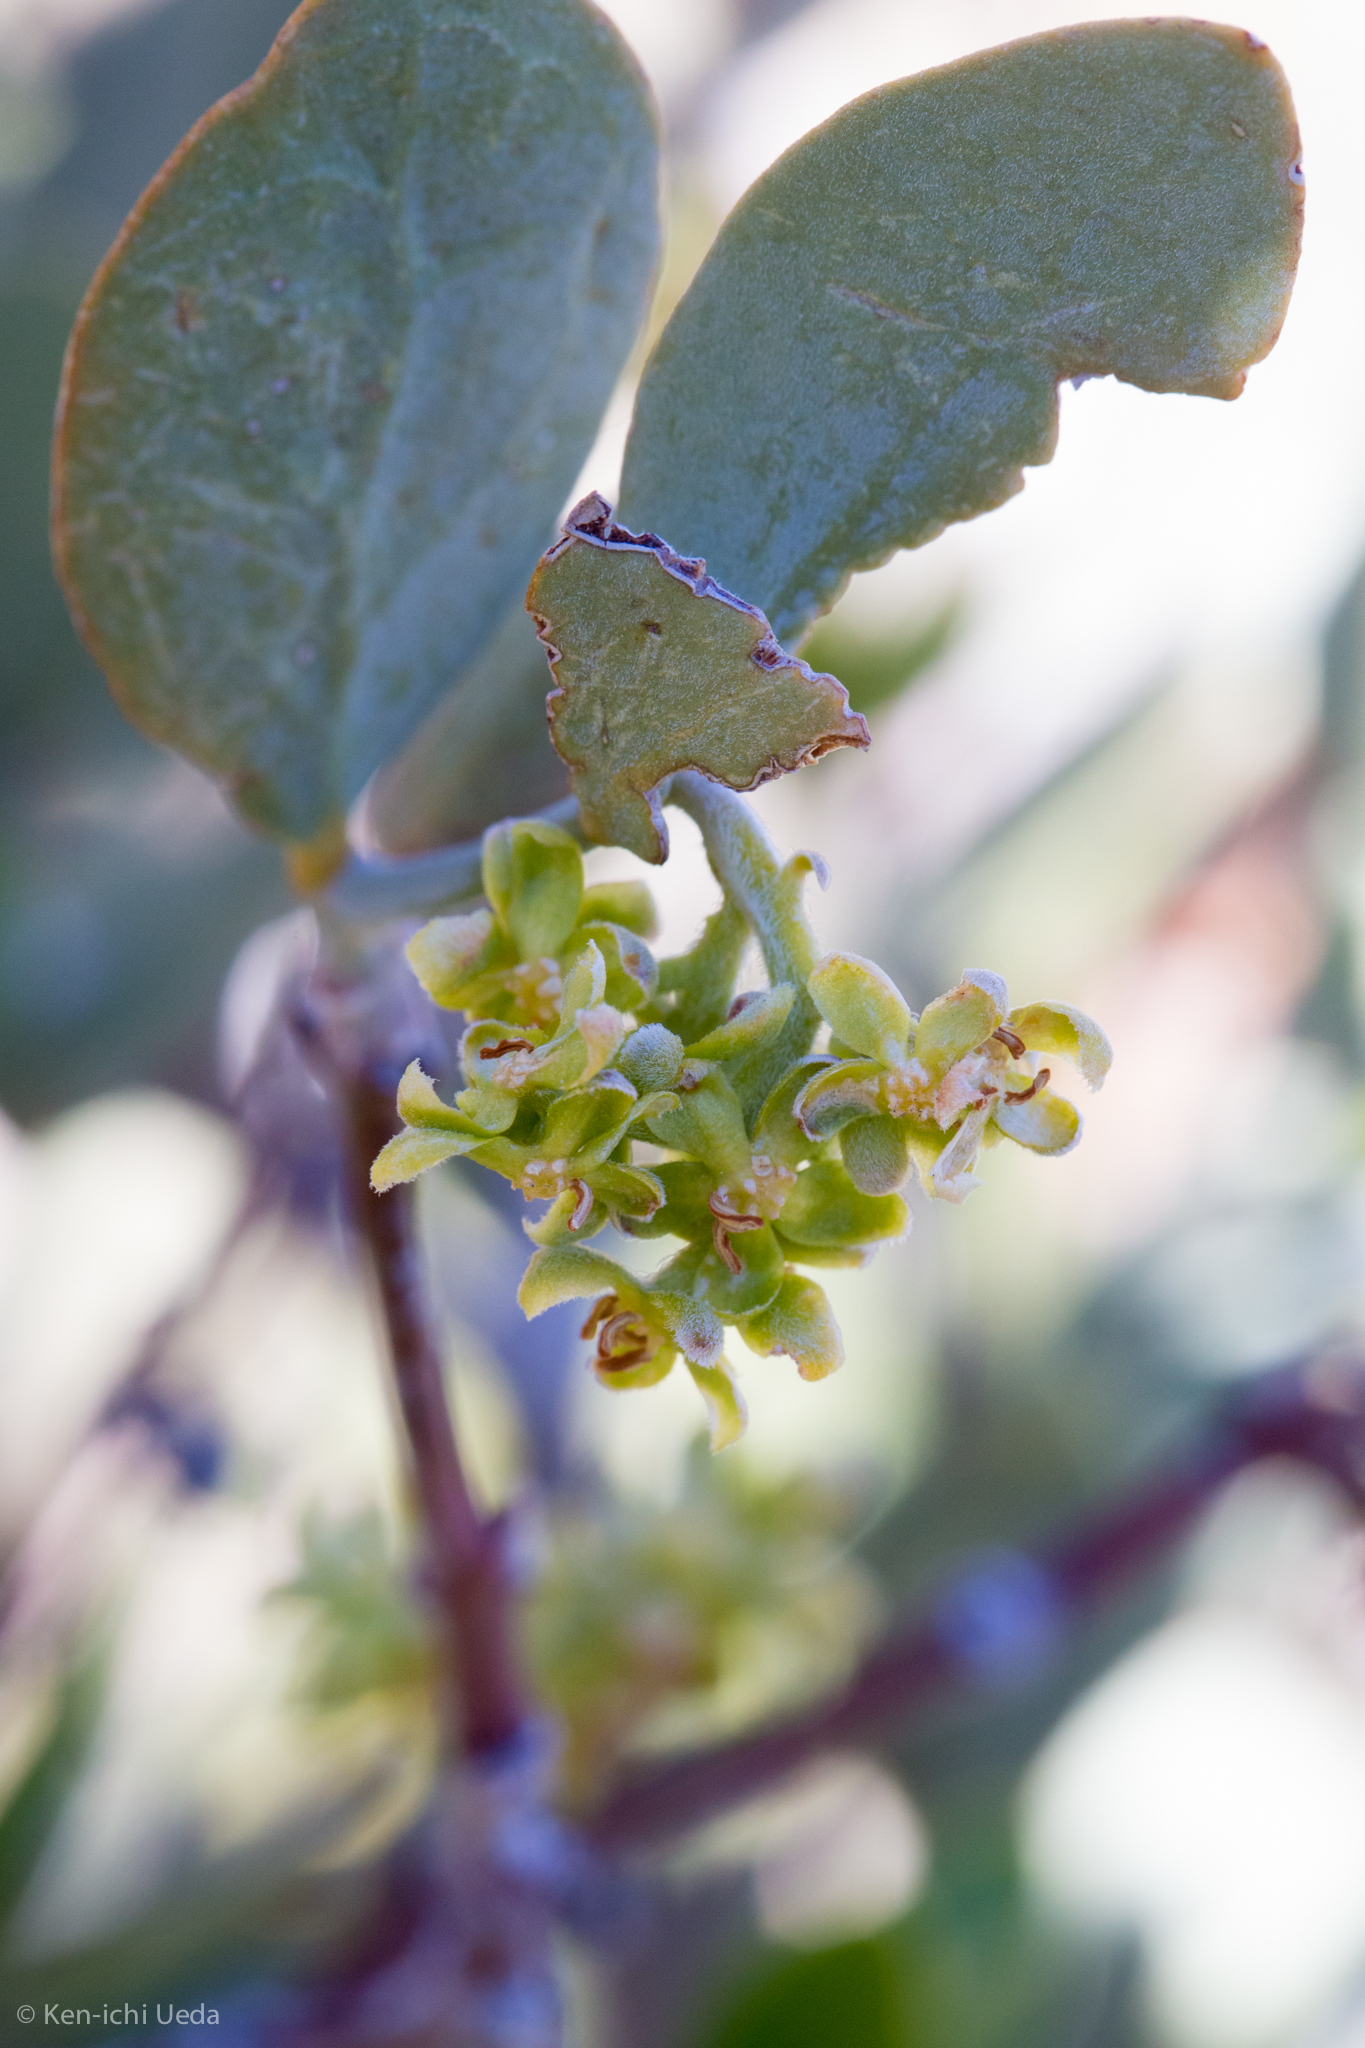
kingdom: Plantae
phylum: Tracheophyta
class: Magnoliopsida
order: Caryophyllales
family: Simmondsiaceae
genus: Simmondsia
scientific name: Simmondsia chinensis
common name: Jojoba
